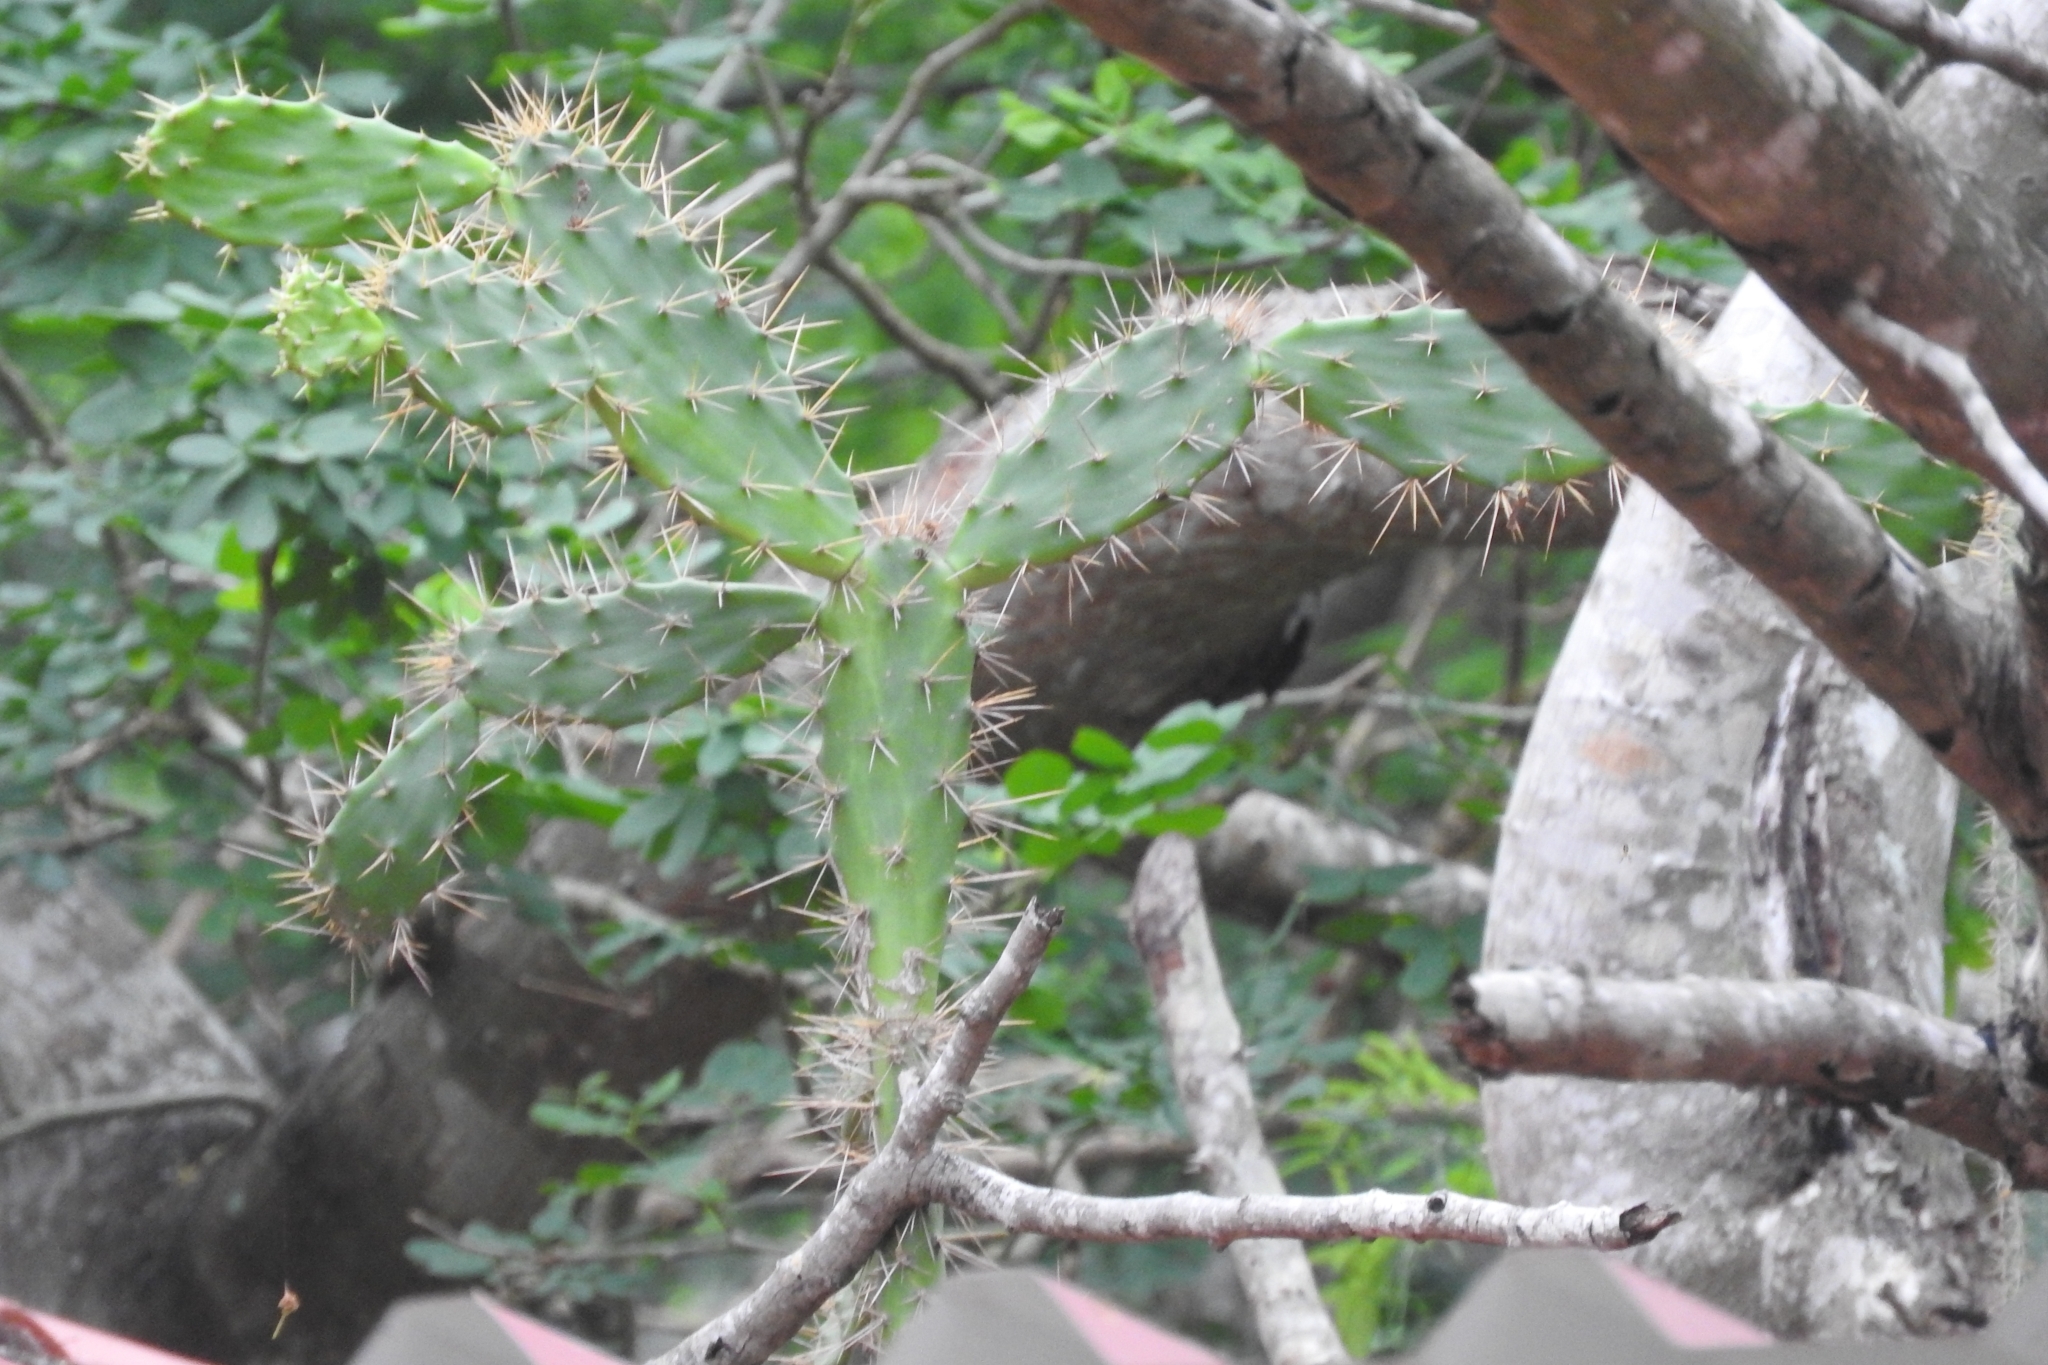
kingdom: Plantae
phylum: Tracheophyta
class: Magnoliopsida
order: Caryophyllales
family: Cactaceae
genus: Opuntia
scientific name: Opuntia inaperta
